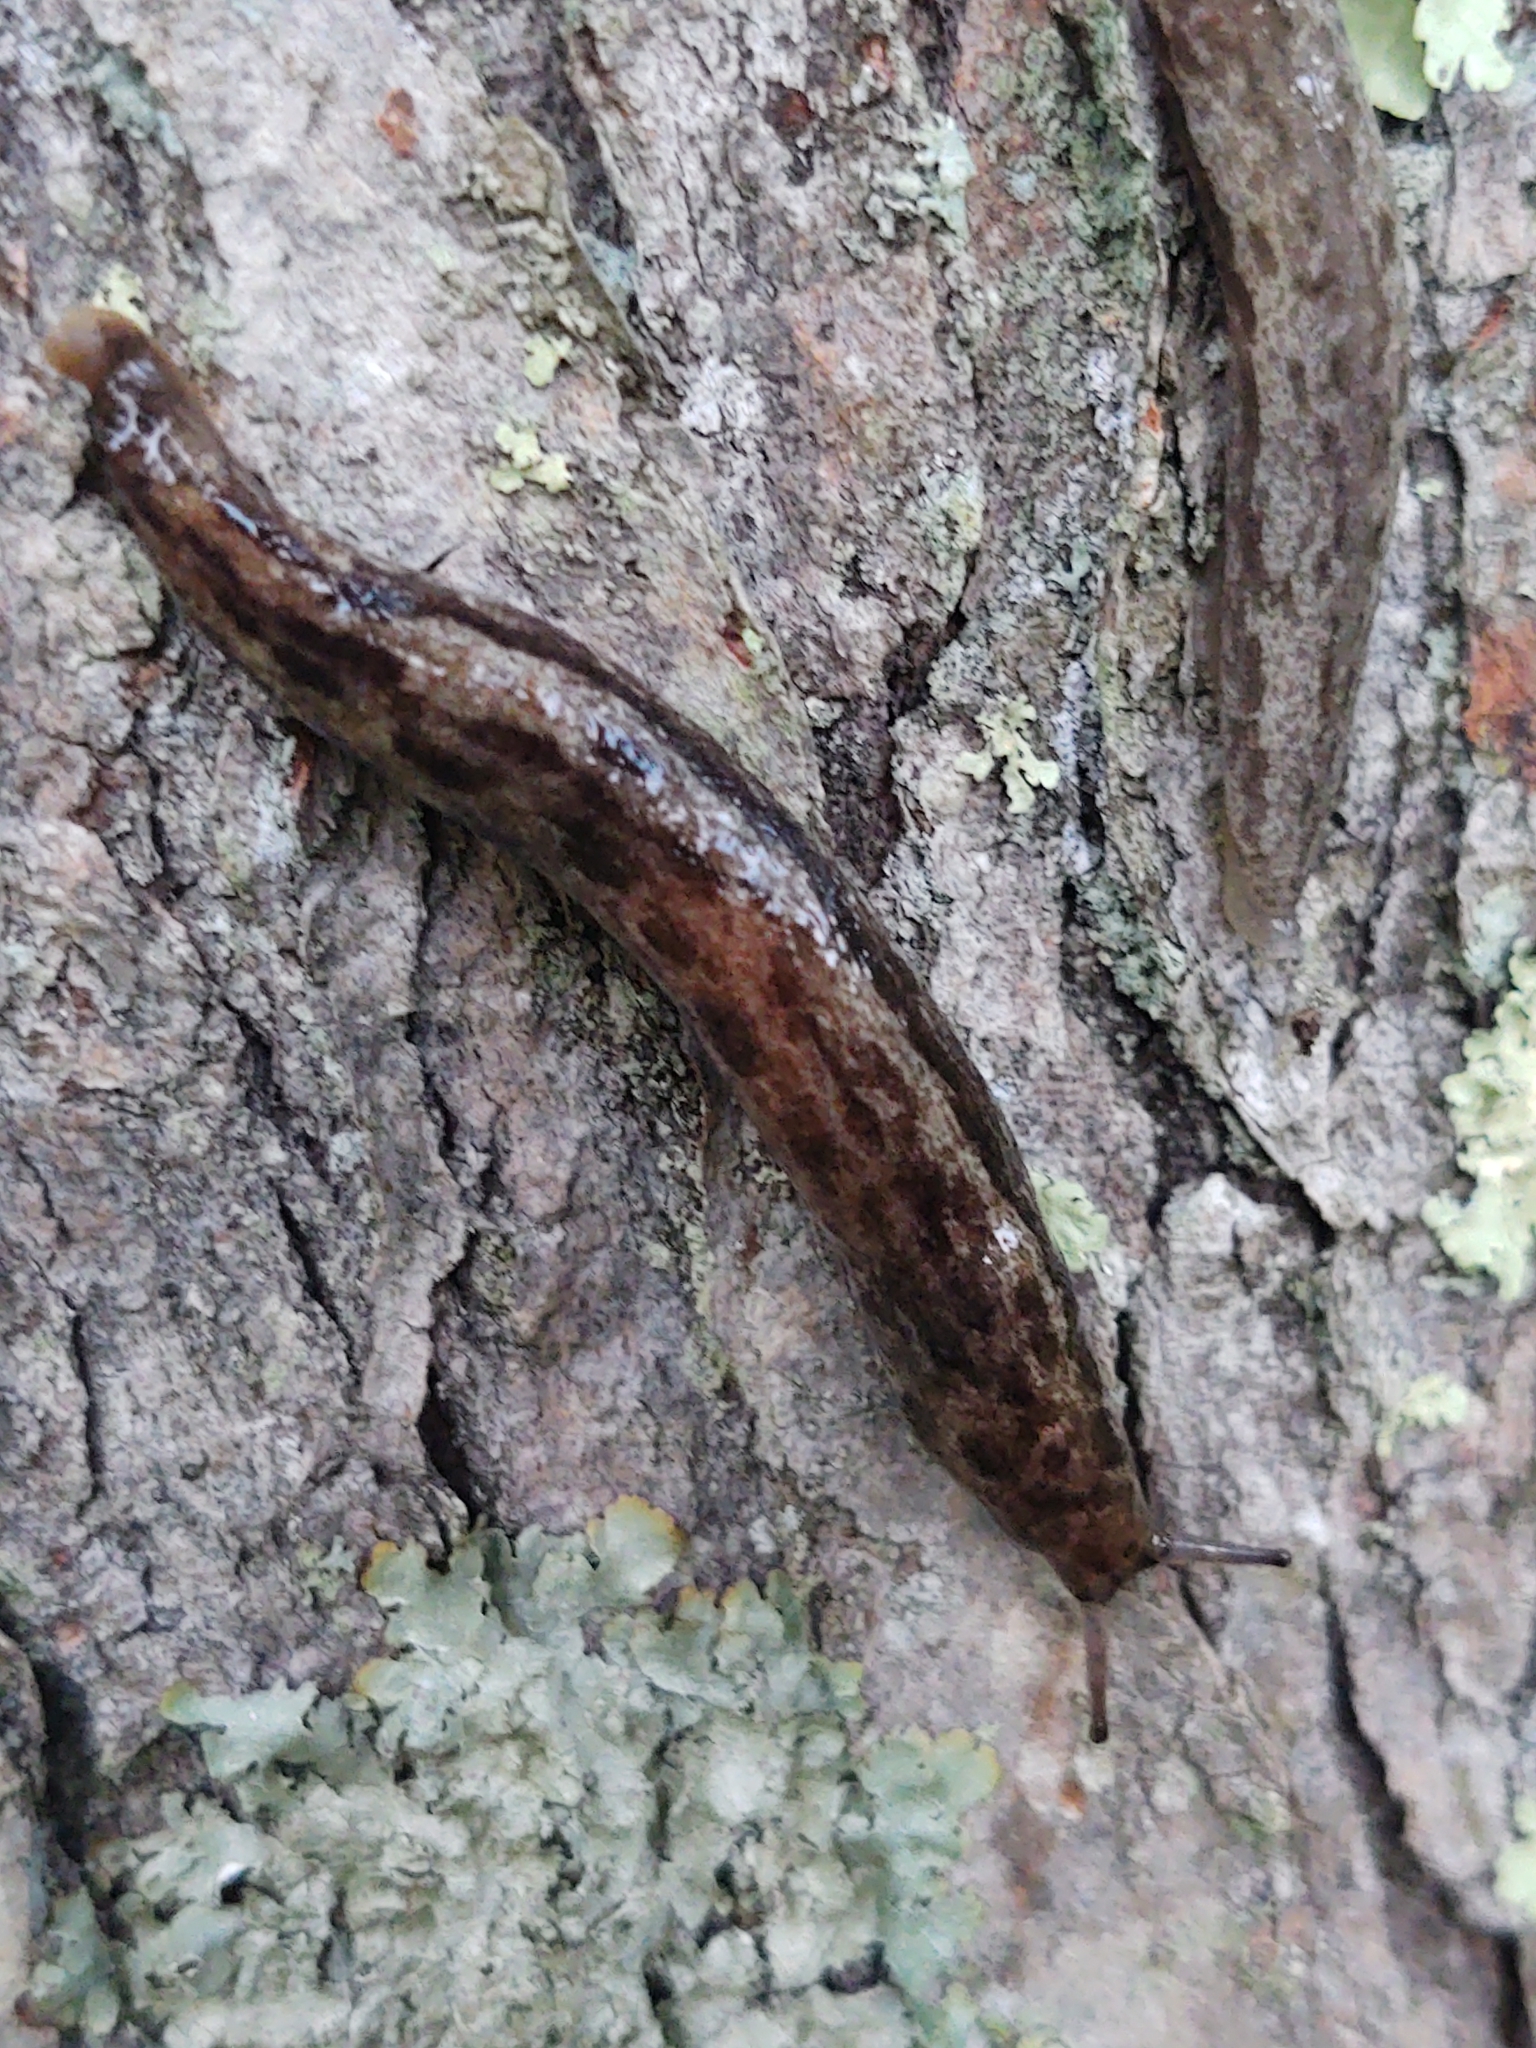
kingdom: Animalia
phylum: Mollusca
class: Gastropoda
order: Stylommatophora
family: Philomycidae
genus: Megapallifera
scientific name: Megapallifera mutabilis
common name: Changeable mantleslug
